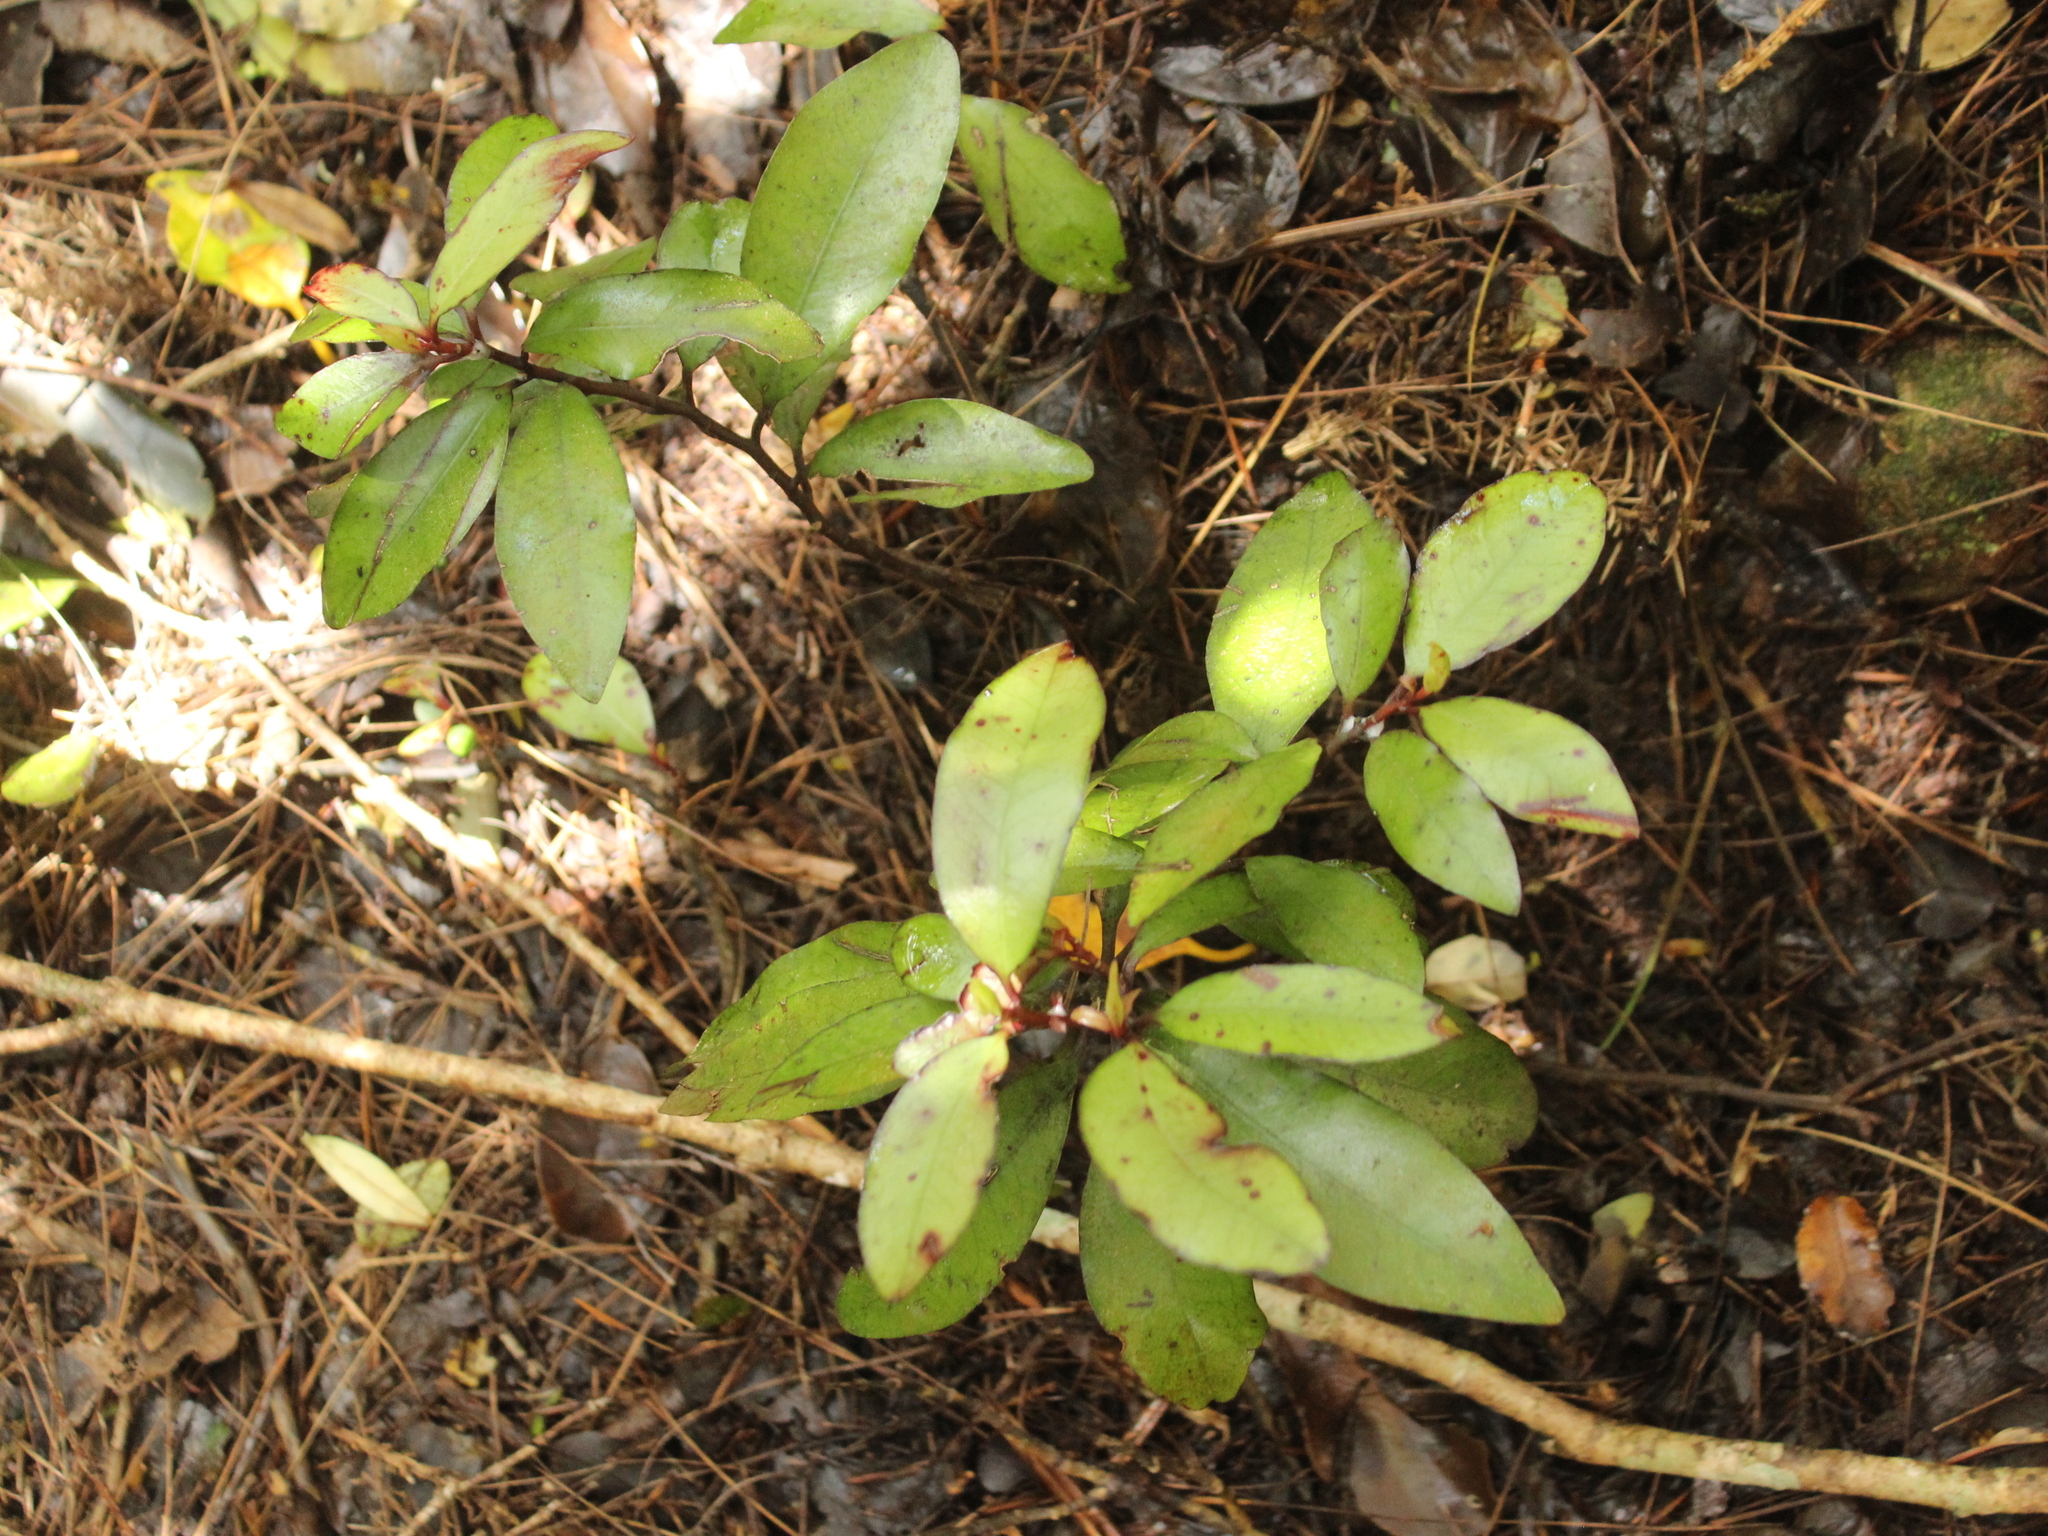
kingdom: Plantae
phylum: Tracheophyta
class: Magnoliopsida
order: Canellales
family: Winteraceae
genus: Pseudowintera
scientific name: Pseudowintera colorata
